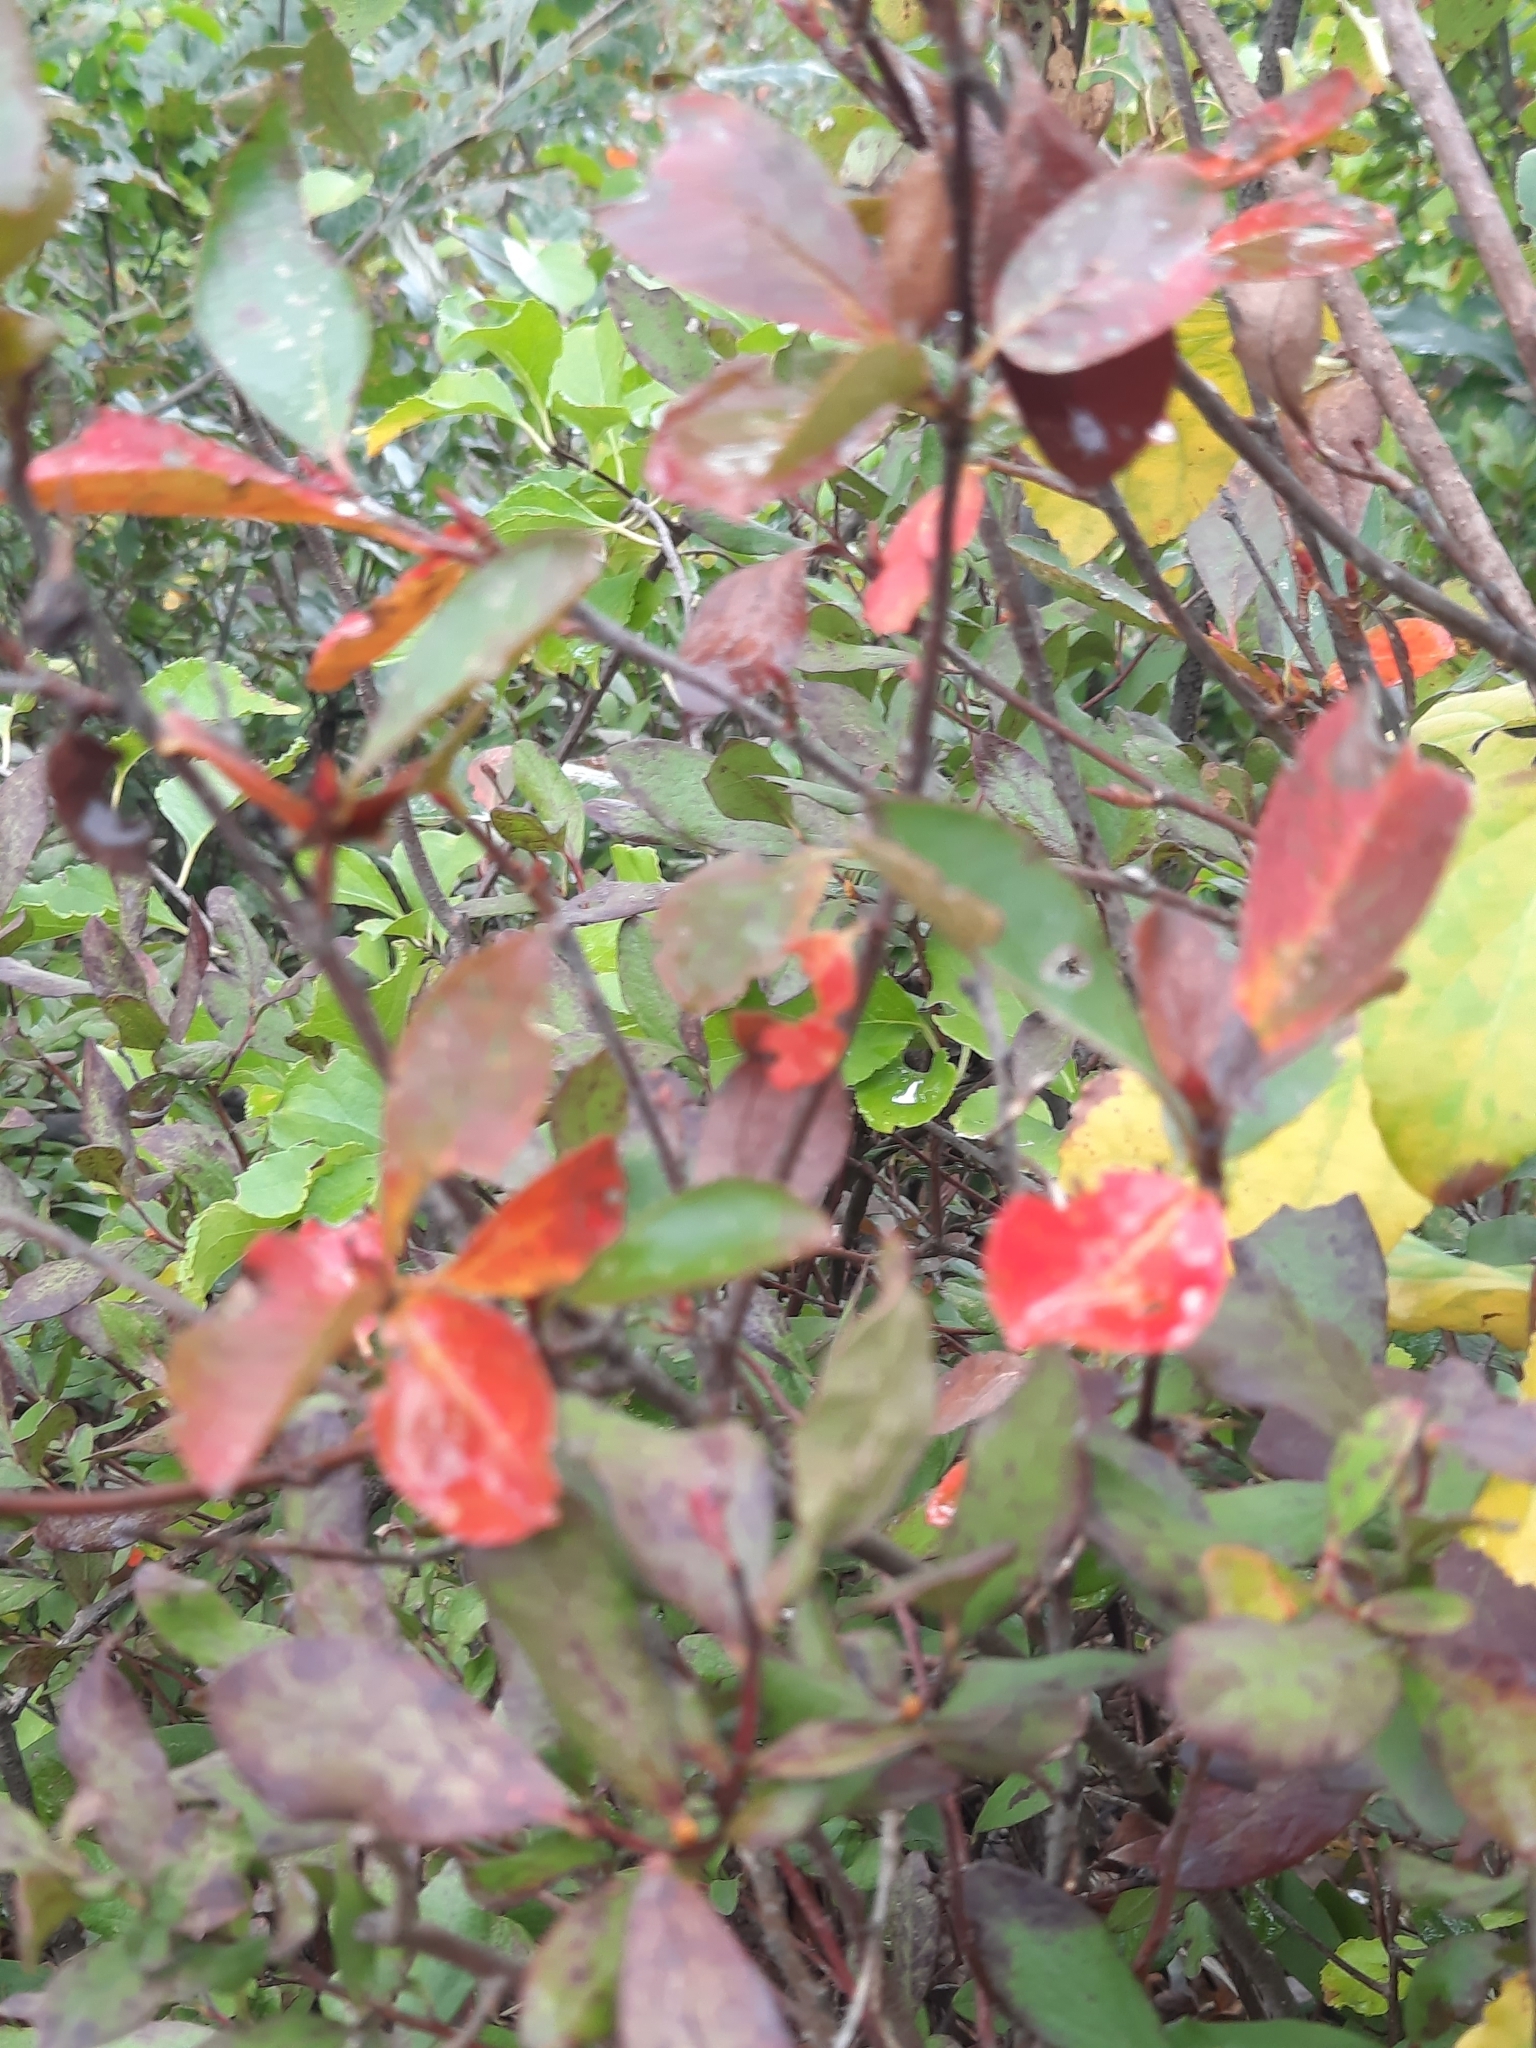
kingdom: Plantae
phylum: Tracheophyta
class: Magnoliopsida
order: Rosales
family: Rosaceae
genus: Aronia
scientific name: Aronia melanocarpa
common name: Black chokeberry
